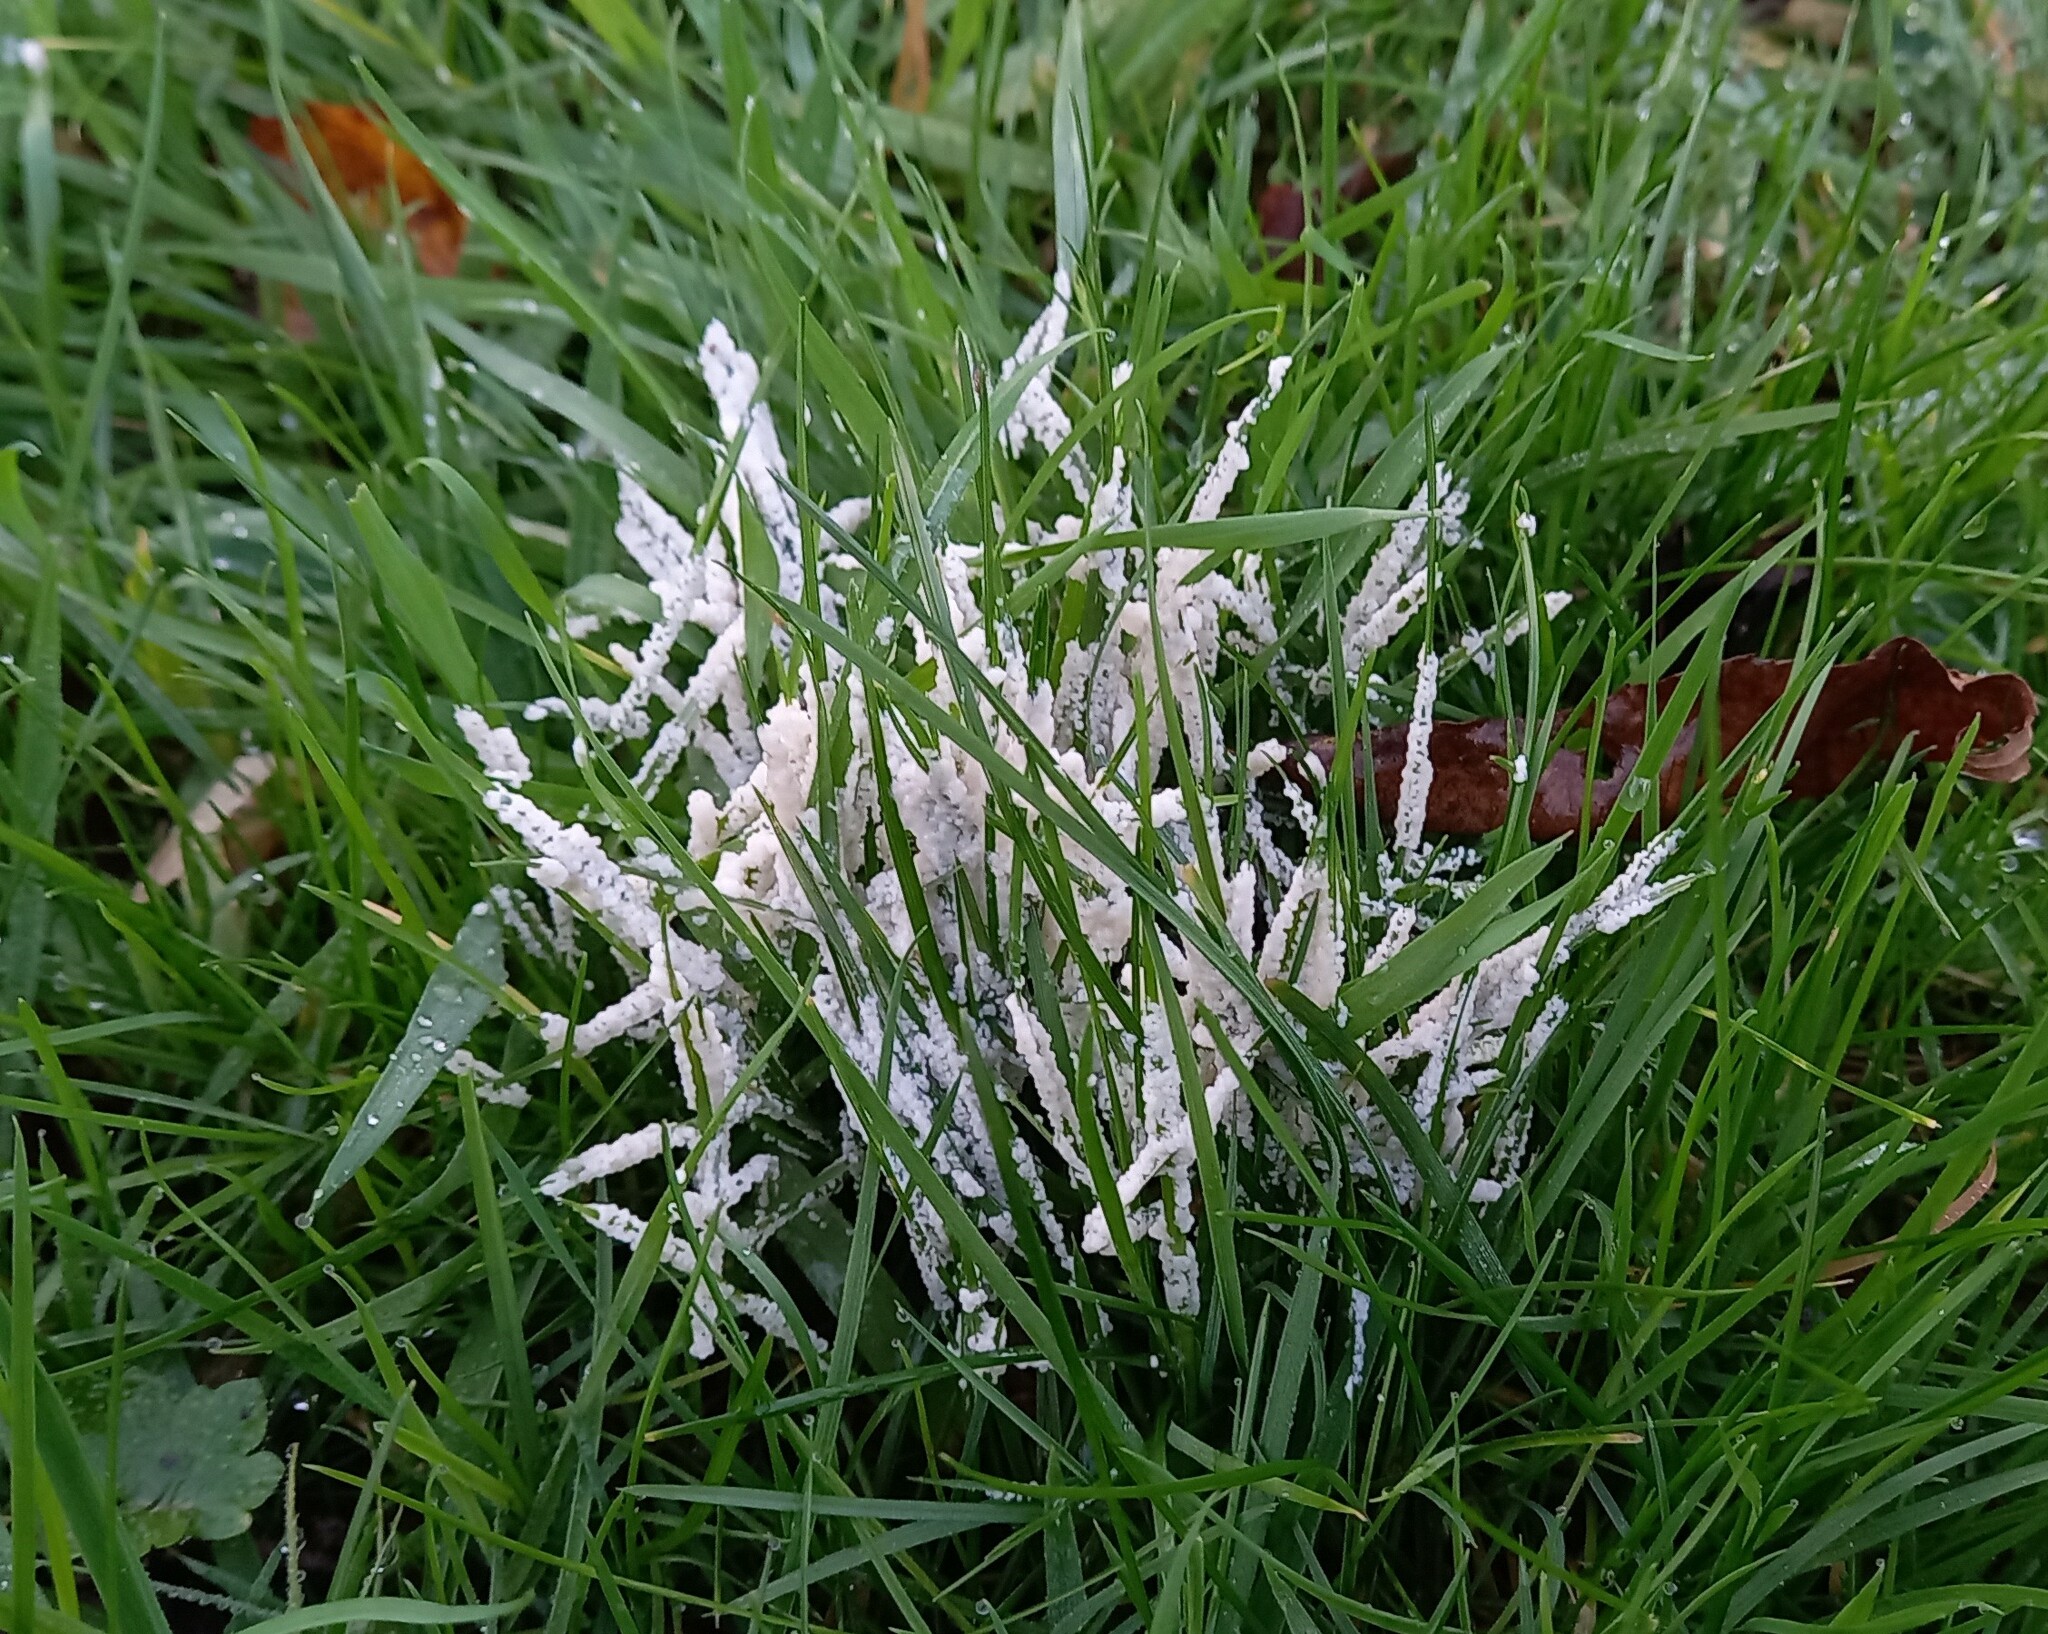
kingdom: Protozoa
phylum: Mycetozoa
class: Myxomycetes
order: Physarales
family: Physaraceae
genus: Didymium
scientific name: Didymium
